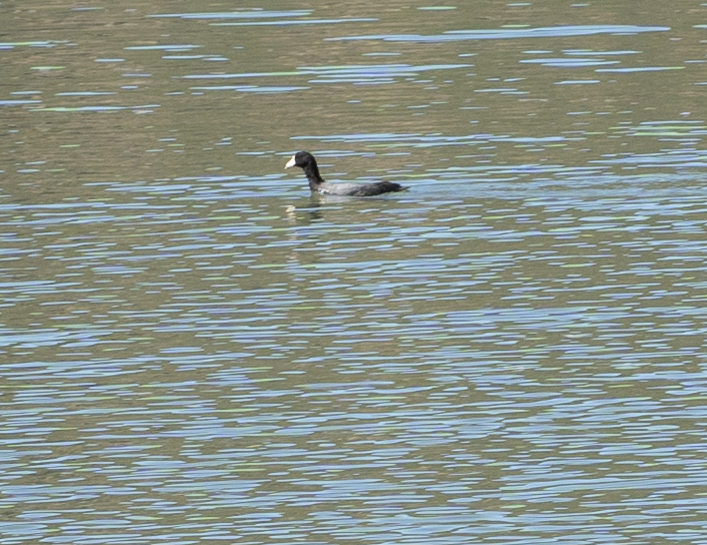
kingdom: Animalia
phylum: Chordata
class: Aves
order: Gruiformes
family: Rallidae
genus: Fulica
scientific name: Fulica americana
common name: American coot
